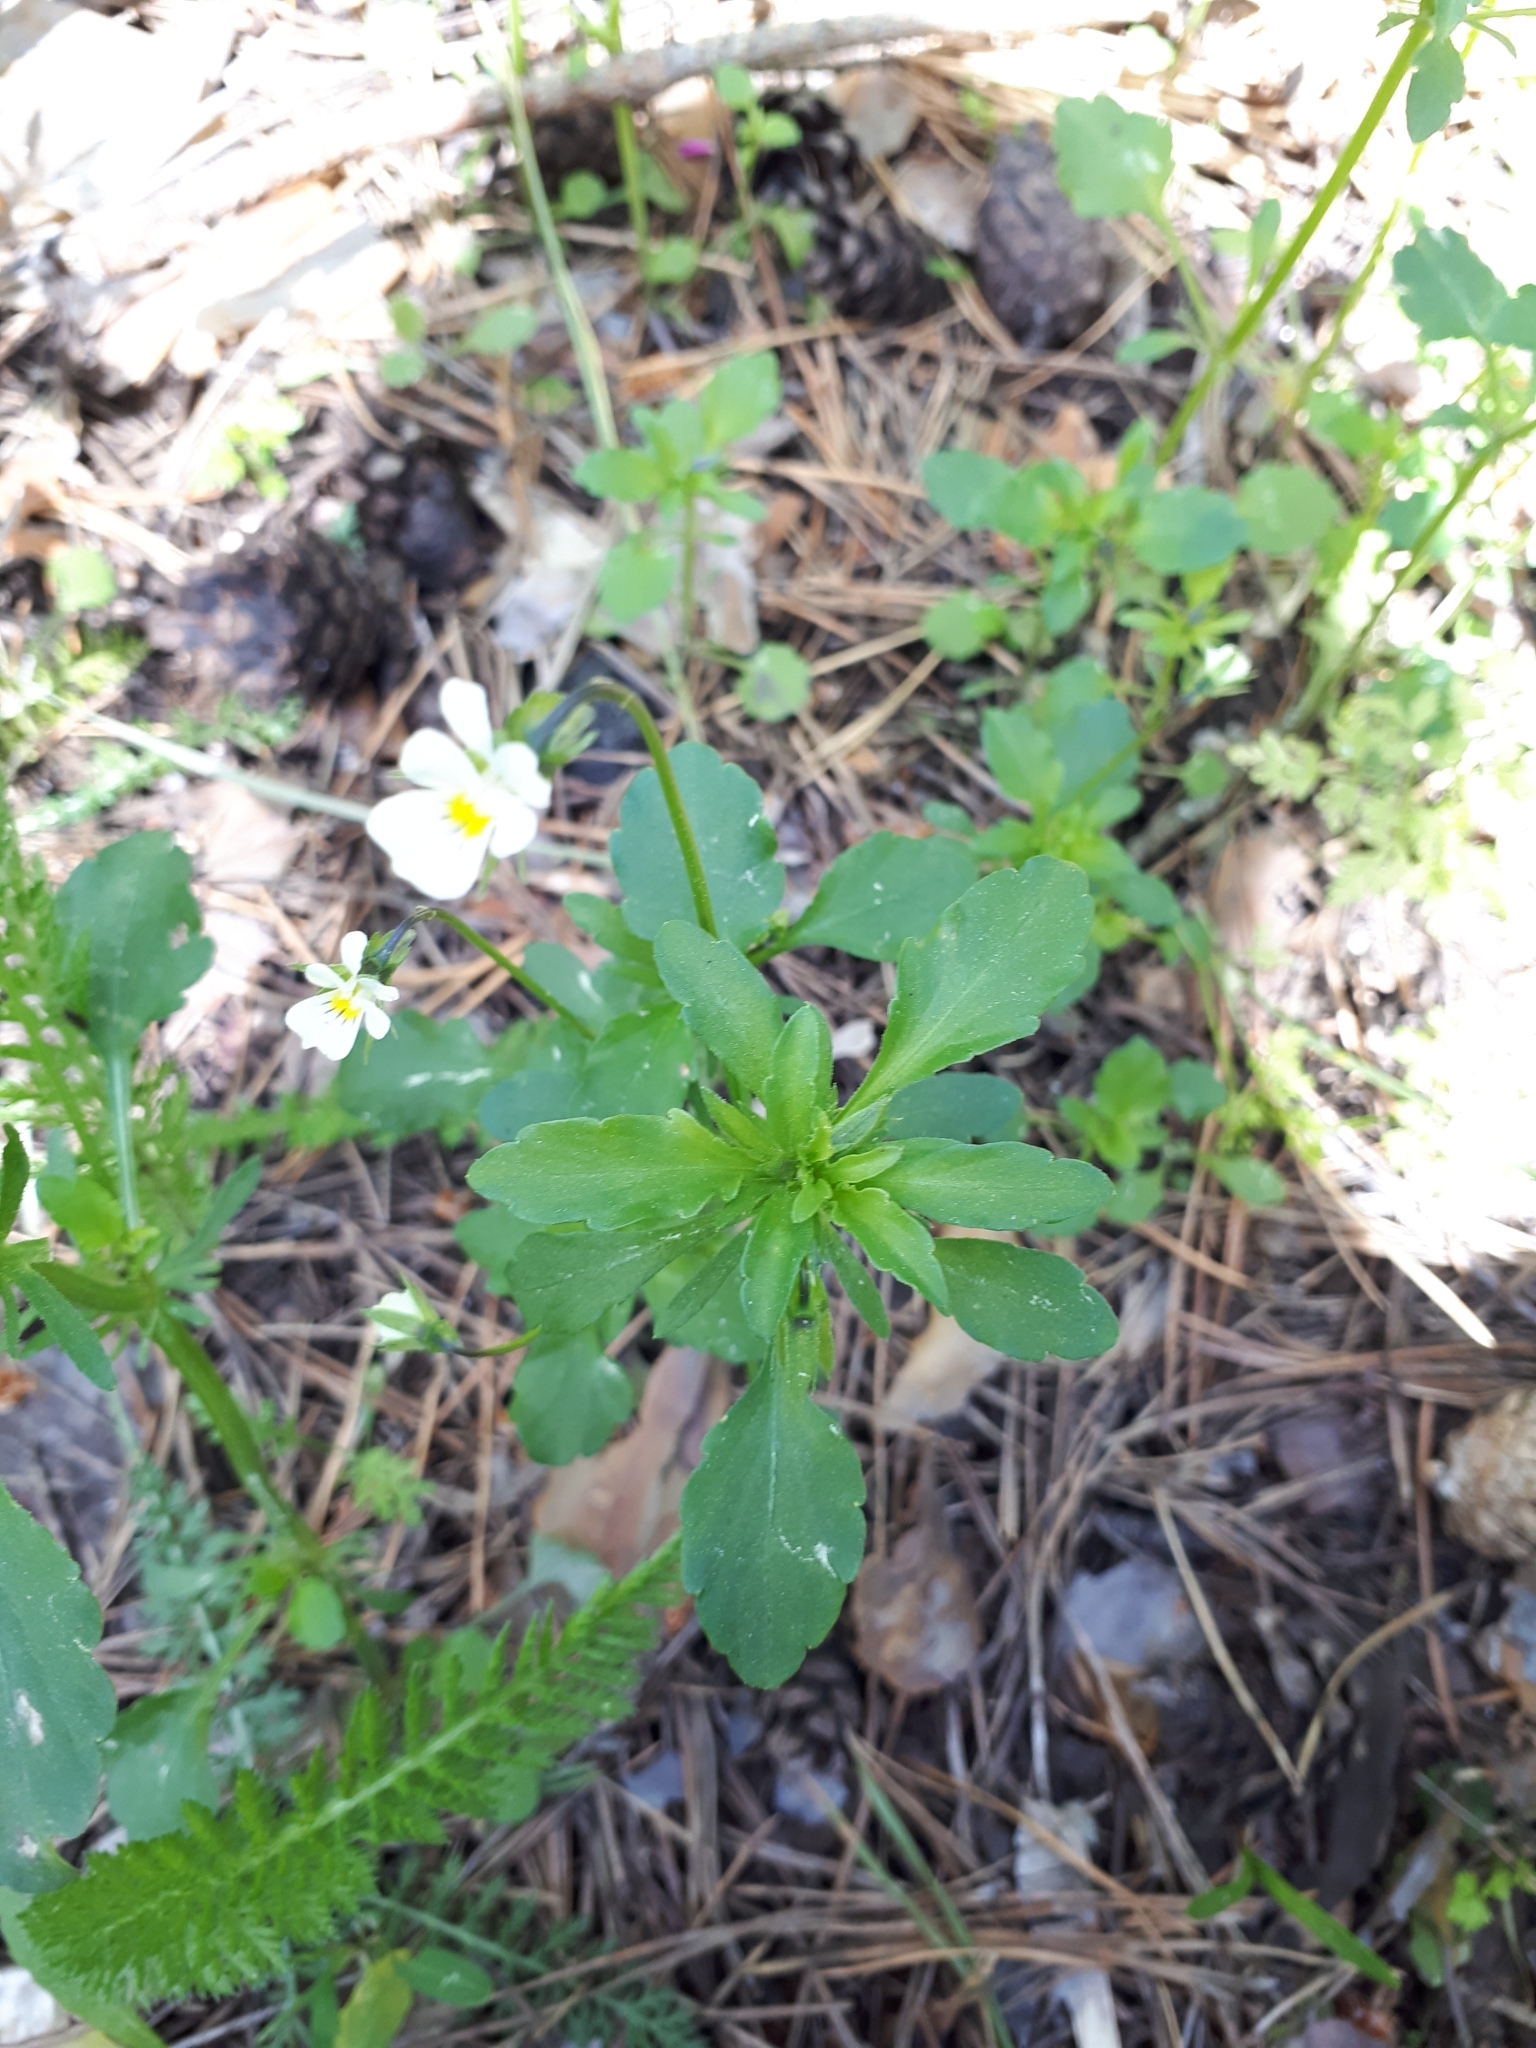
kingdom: Plantae
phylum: Tracheophyta
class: Magnoliopsida
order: Malpighiales
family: Violaceae
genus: Viola
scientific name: Viola arvensis
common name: Field pansy
